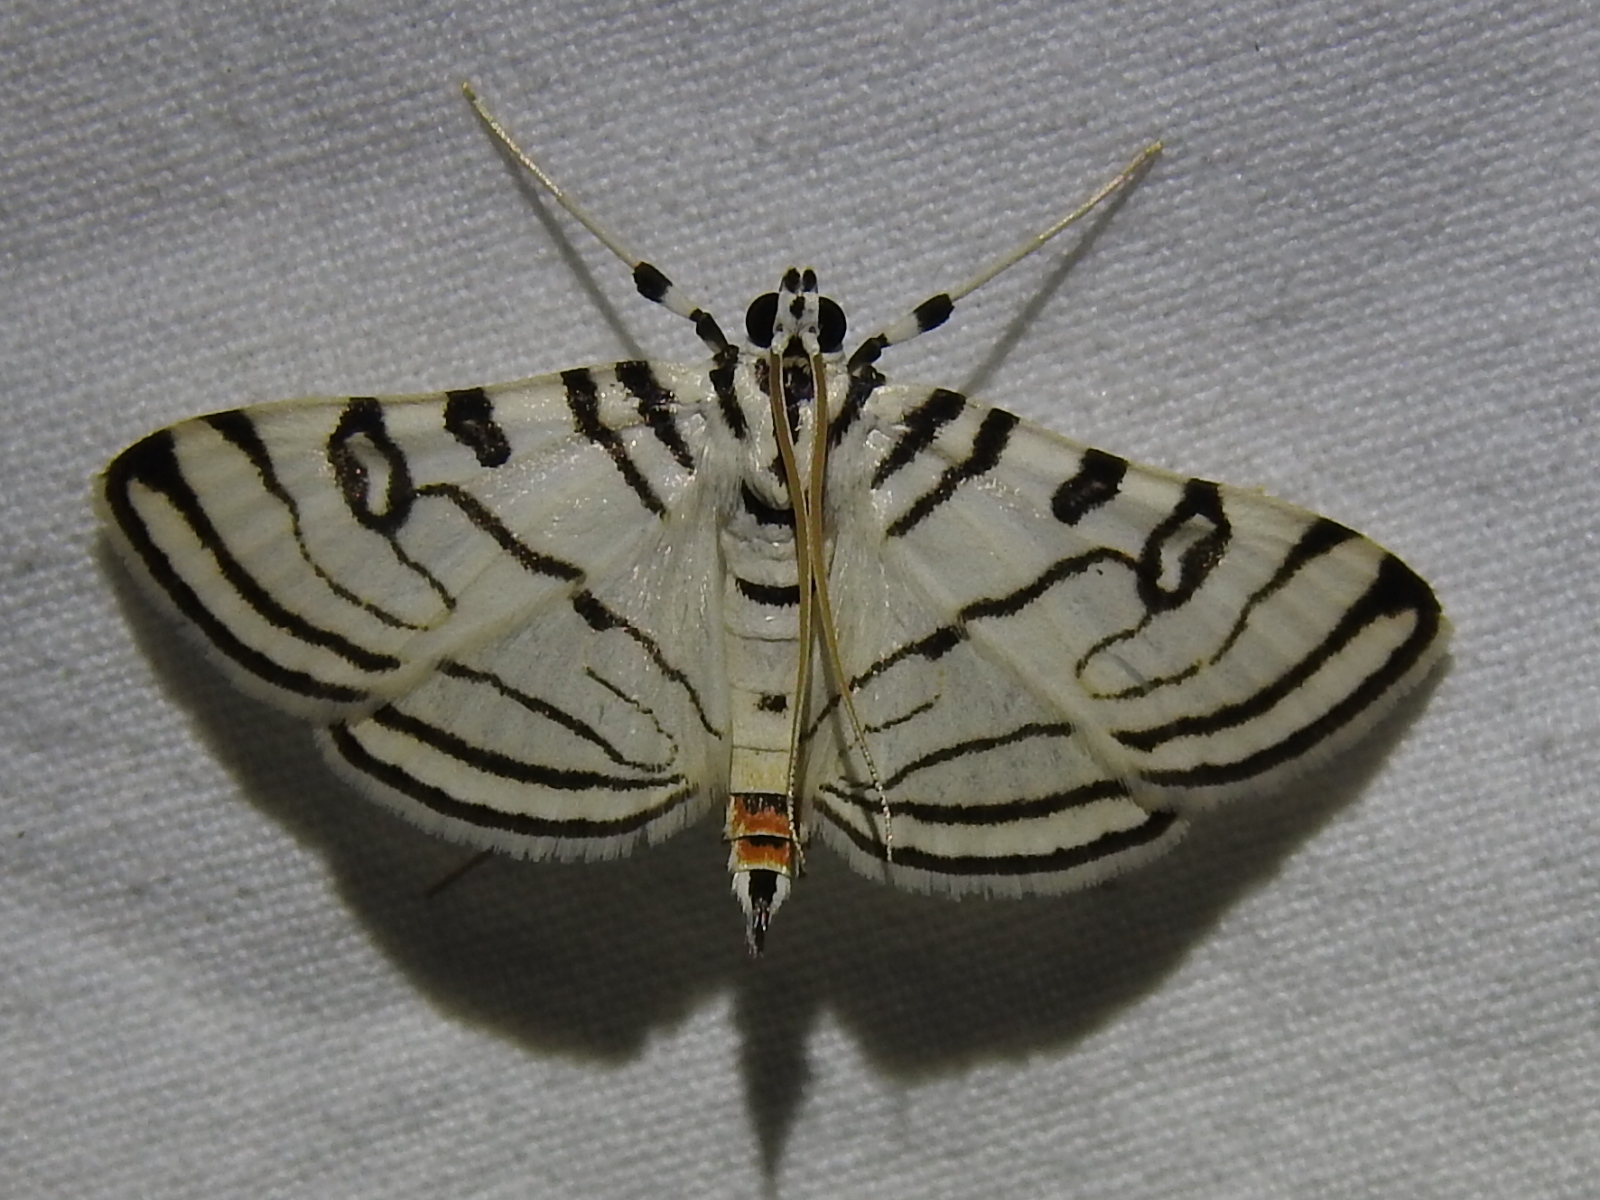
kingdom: Animalia
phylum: Arthropoda
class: Insecta
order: Lepidoptera
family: Crambidae
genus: Conchylodes
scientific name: Conchylodes ovulalis
